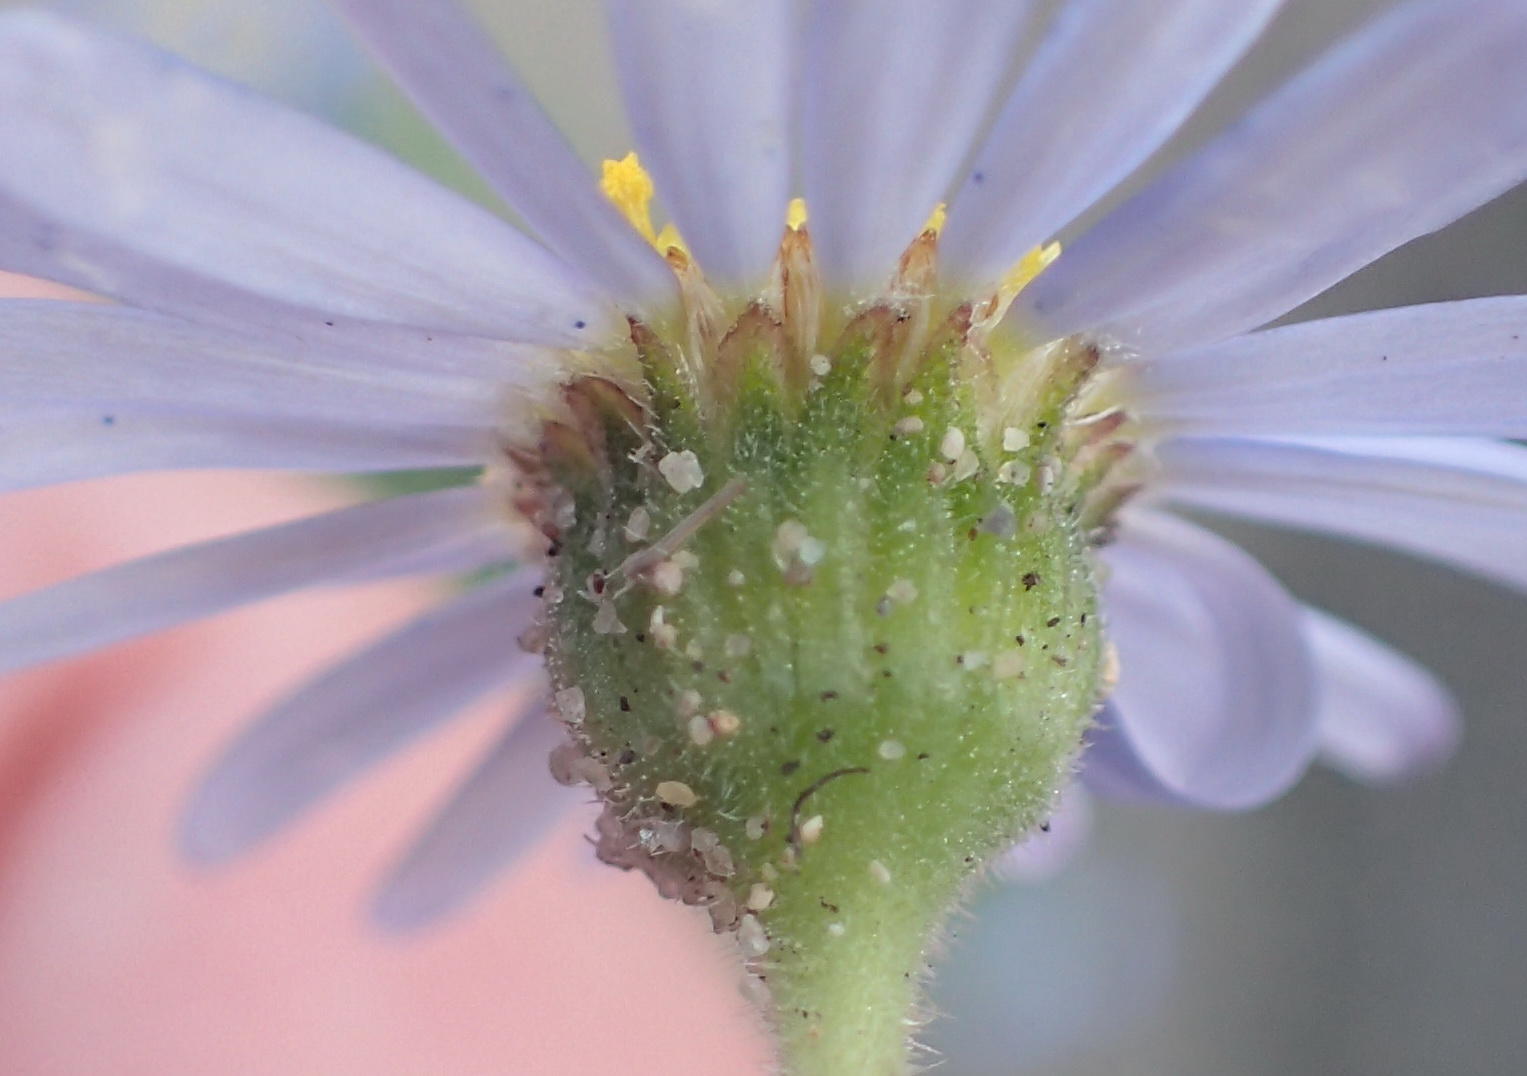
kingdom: Plantae
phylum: Tracheophyta
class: Magnoliopsida
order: Asterales
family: Asteraceae
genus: Felicia
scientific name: Felicia amoena
